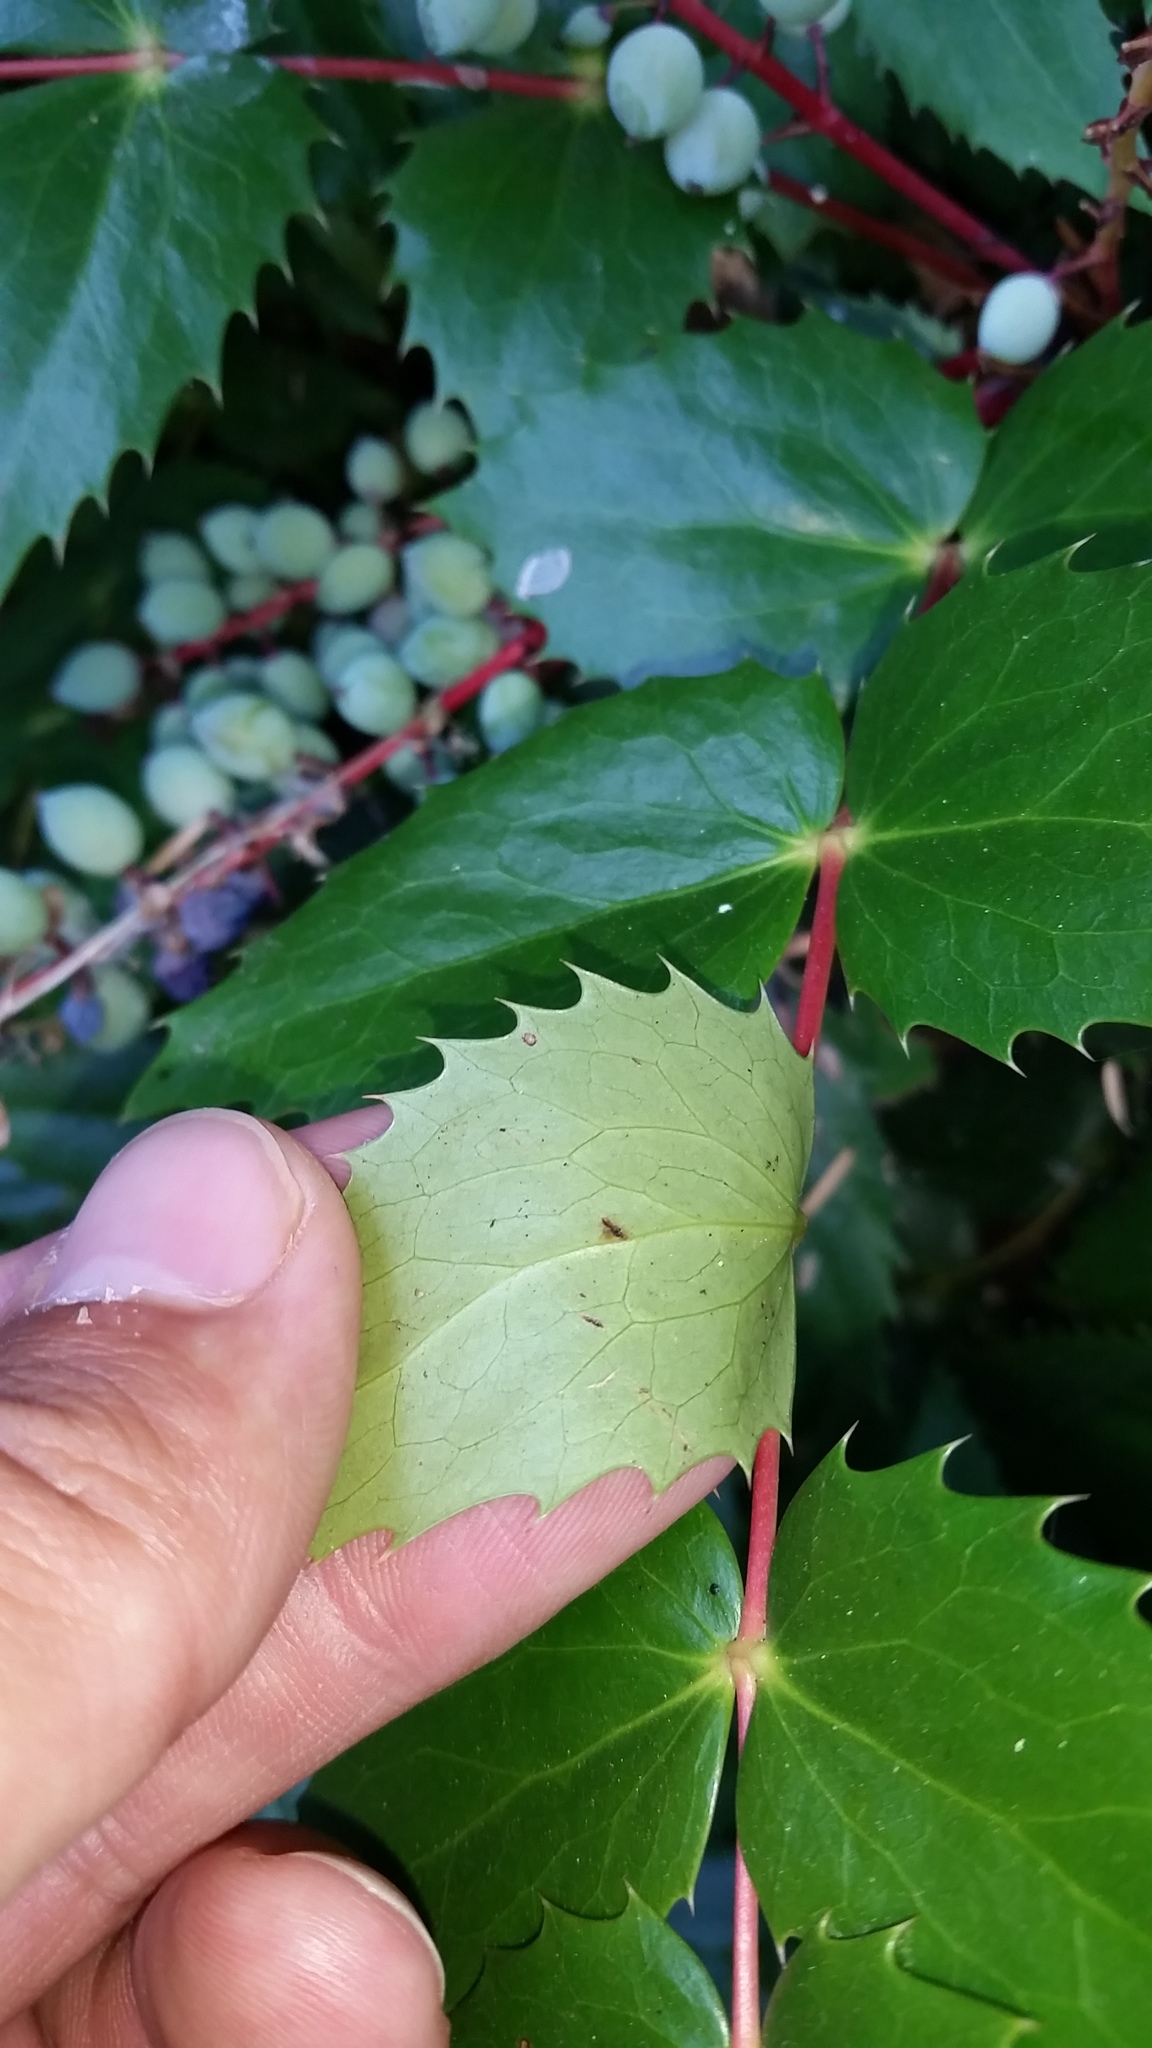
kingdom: Plantae
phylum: Tracheophyta
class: Magnoliopsida
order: Ranunculales
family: Berberidaceae
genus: Mahonia
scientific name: Mahonia nervosa
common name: Cascade oregon-grape
